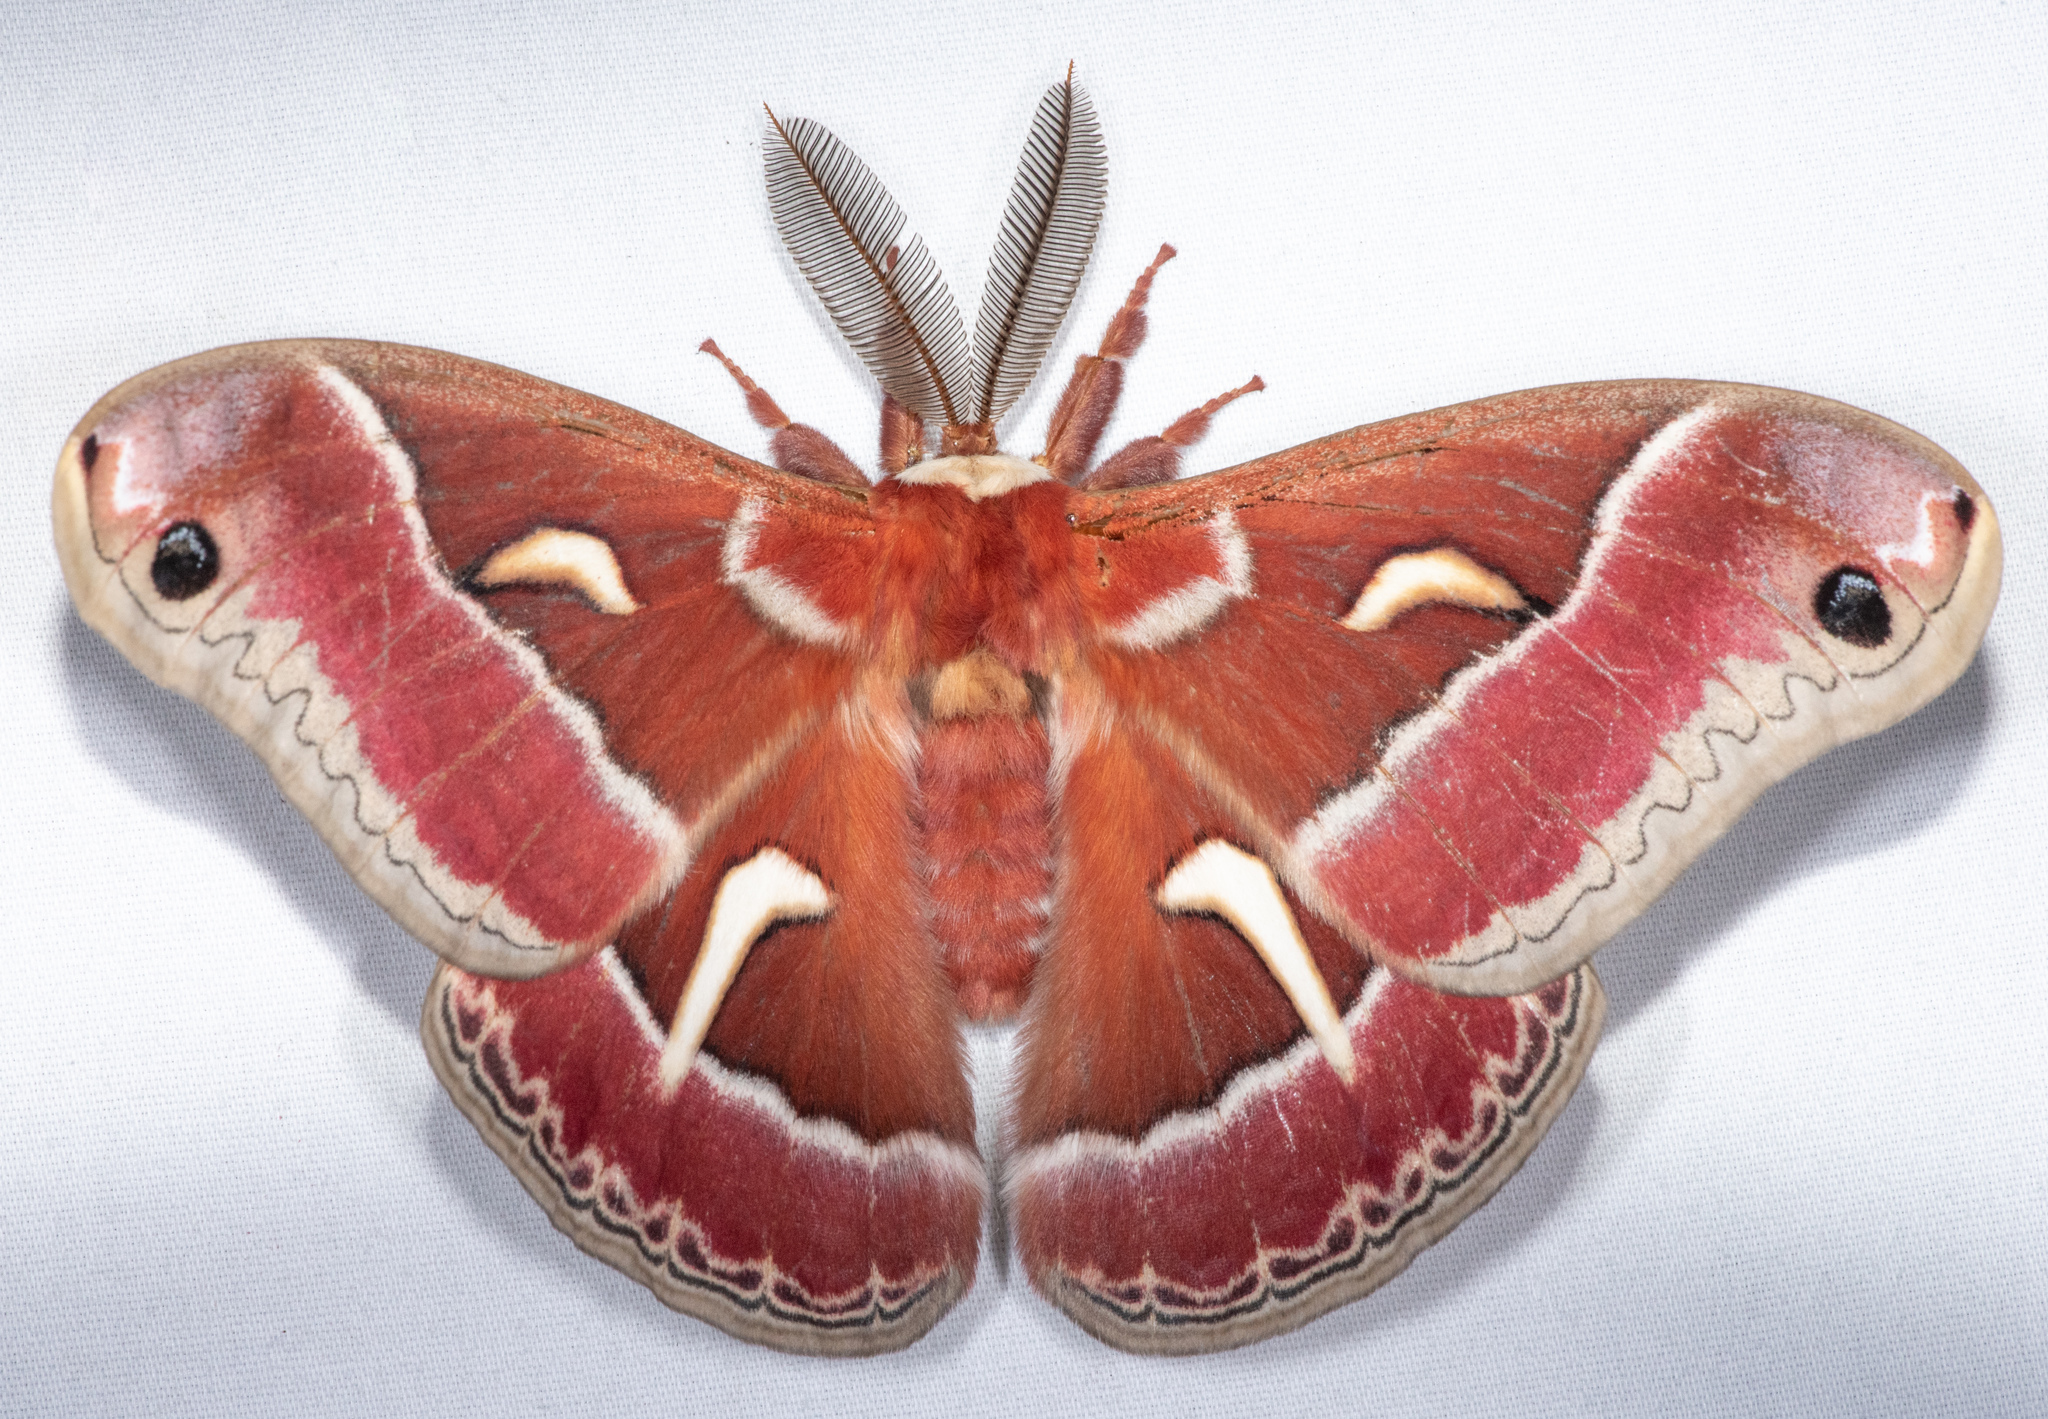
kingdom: Animalia
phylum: Arthropoda
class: Insecta
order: Lepidoptera
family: Saturniidae
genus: Hyalophora
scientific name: Hyalophora euryalus
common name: Ceanothus silkmoth
